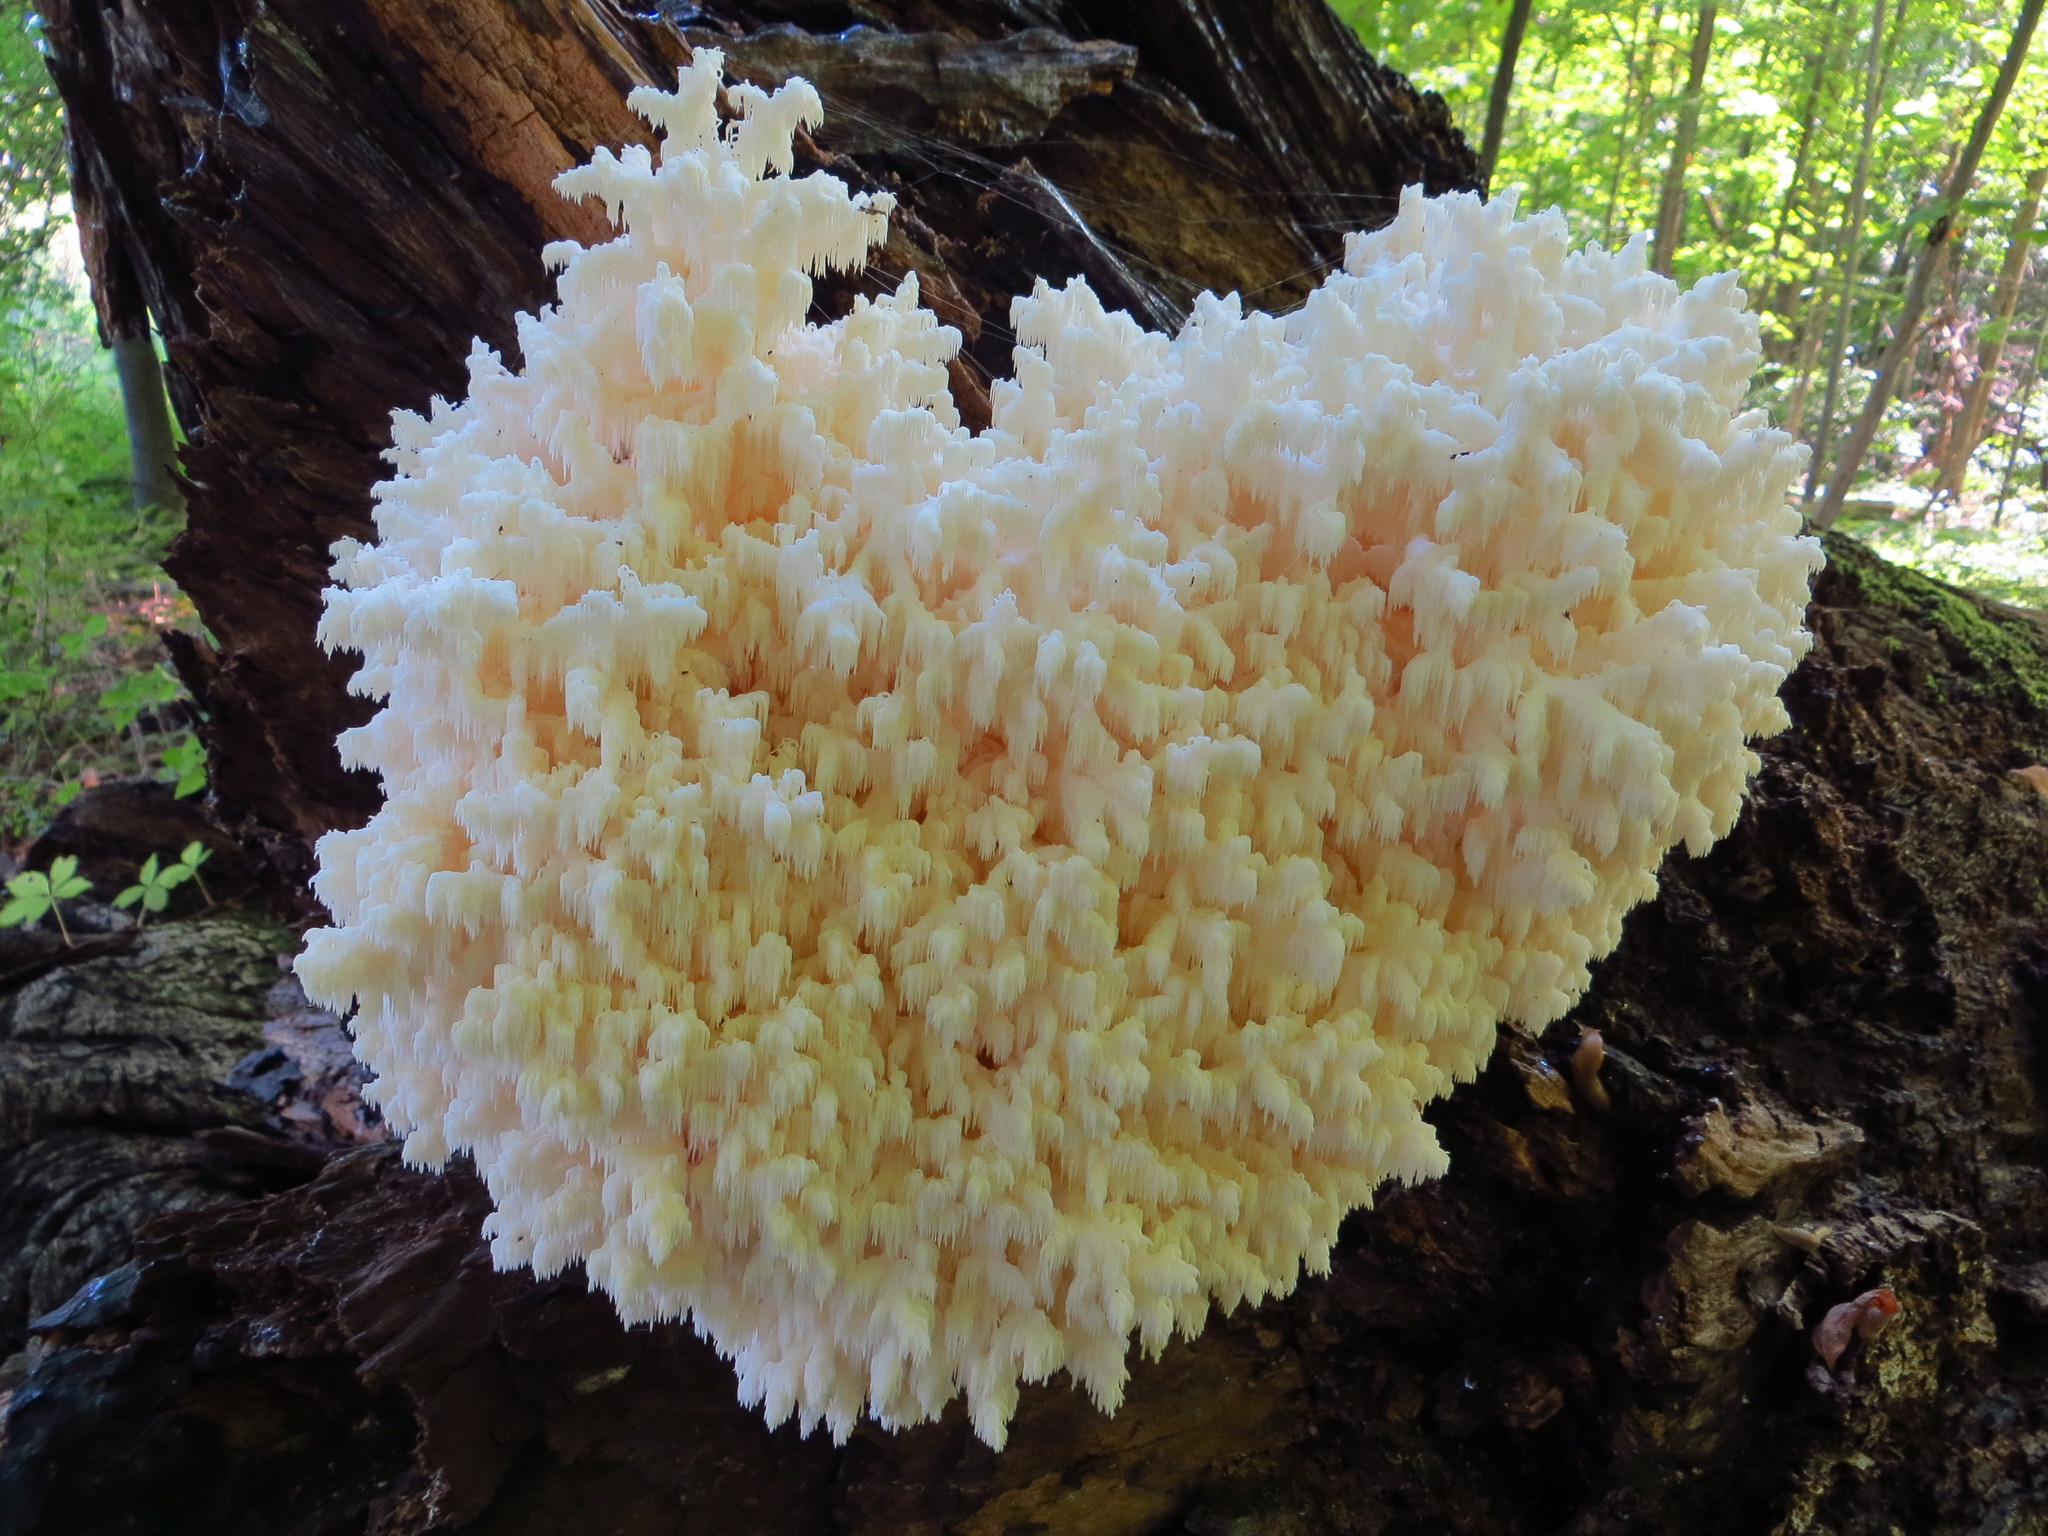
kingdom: Fungi
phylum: Basidiomycota
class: Agaricomycetes
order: Russulales
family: Hericiaceae
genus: Hericium
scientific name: Hericium coralloides
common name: Coral tooth
